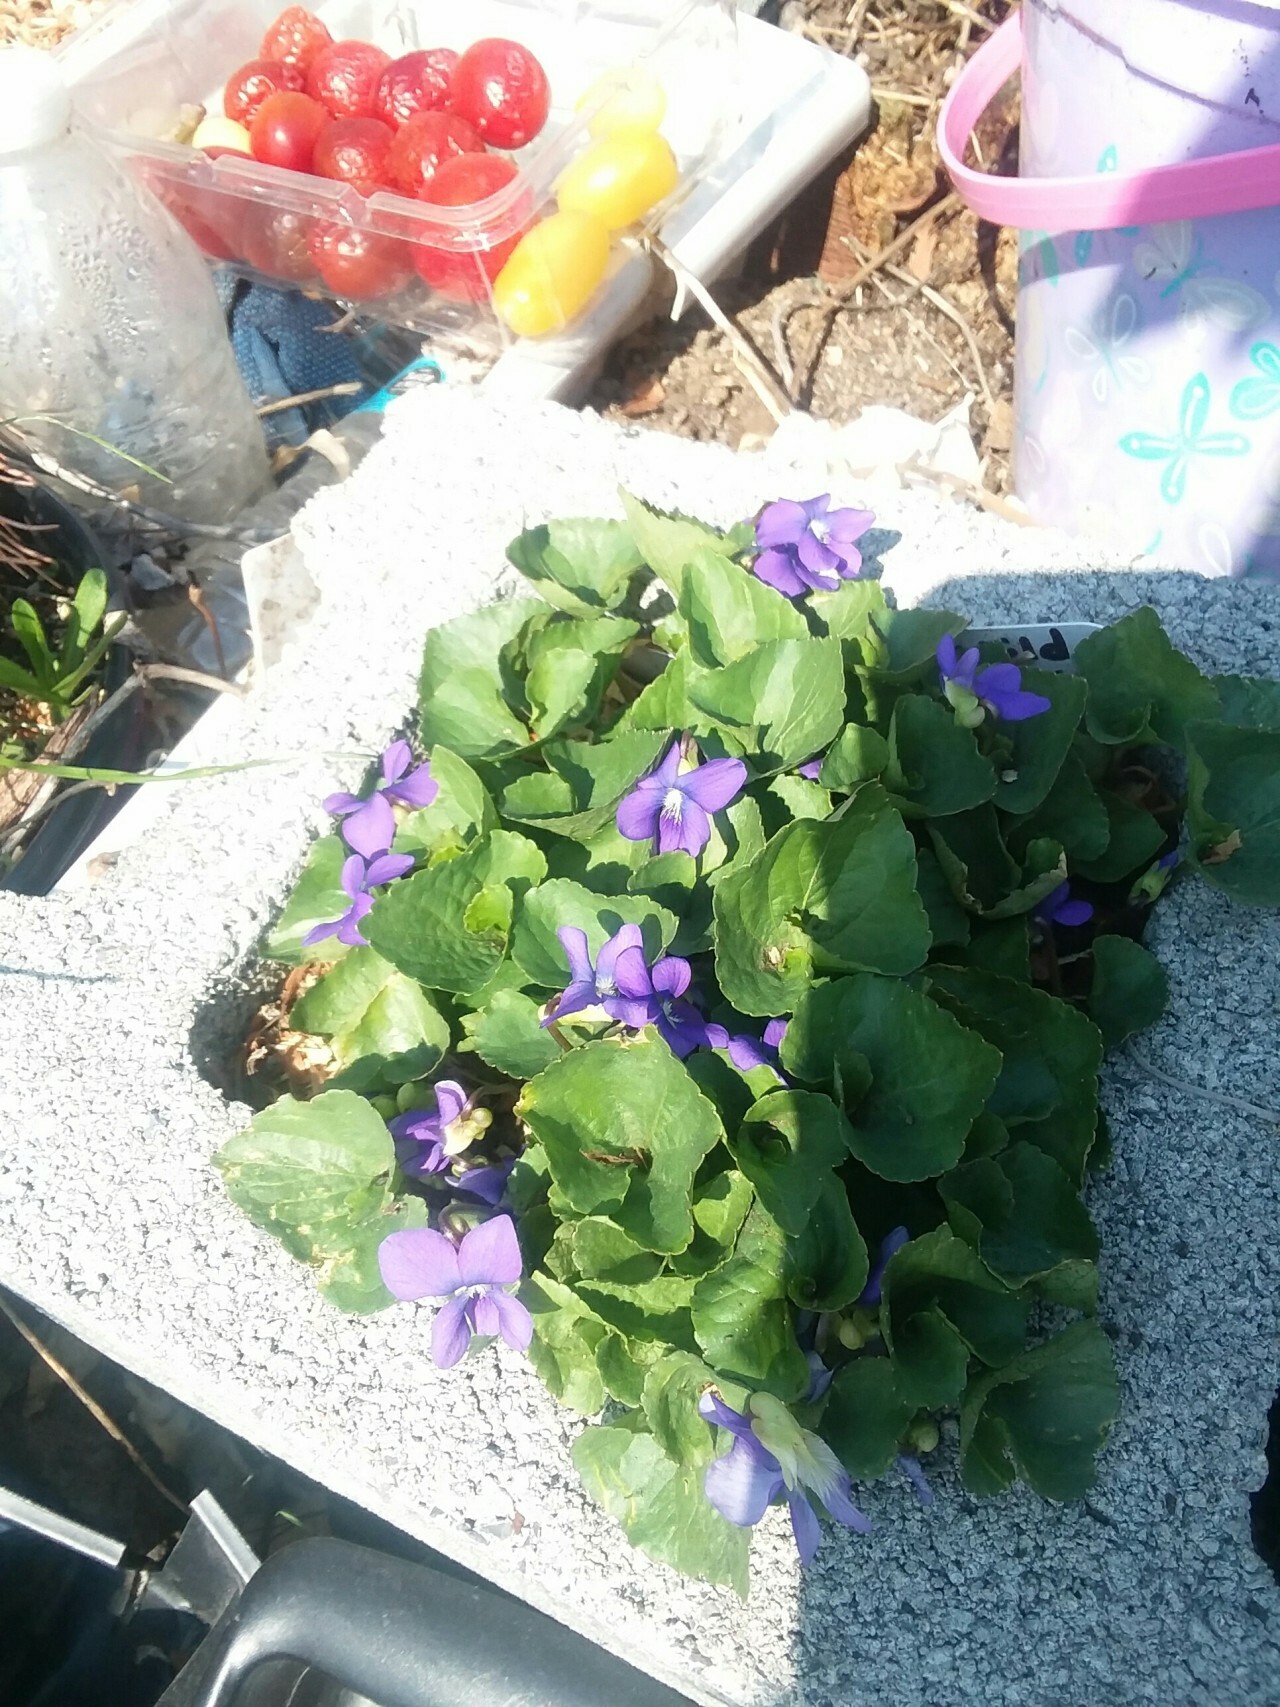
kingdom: Plantae
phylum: Tracheophyta
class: Magnoliopsida
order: Malpighiales
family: Violaceae
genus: Viola
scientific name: Viola sororia
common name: Dooryard violet
